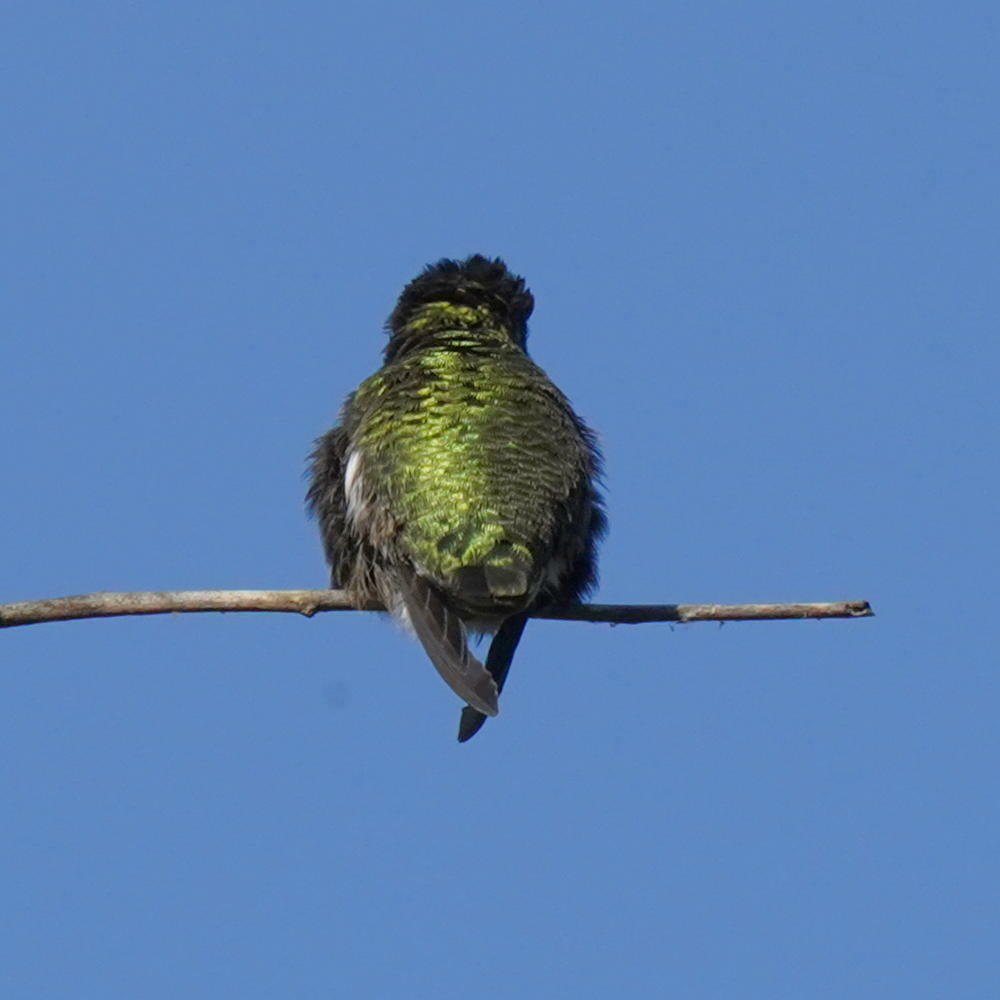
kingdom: Animalia
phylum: Chordata
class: Aves
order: Apodiformes
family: Trochilidae
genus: Calypte
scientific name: Calypte anna
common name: Anna's hummingbird
